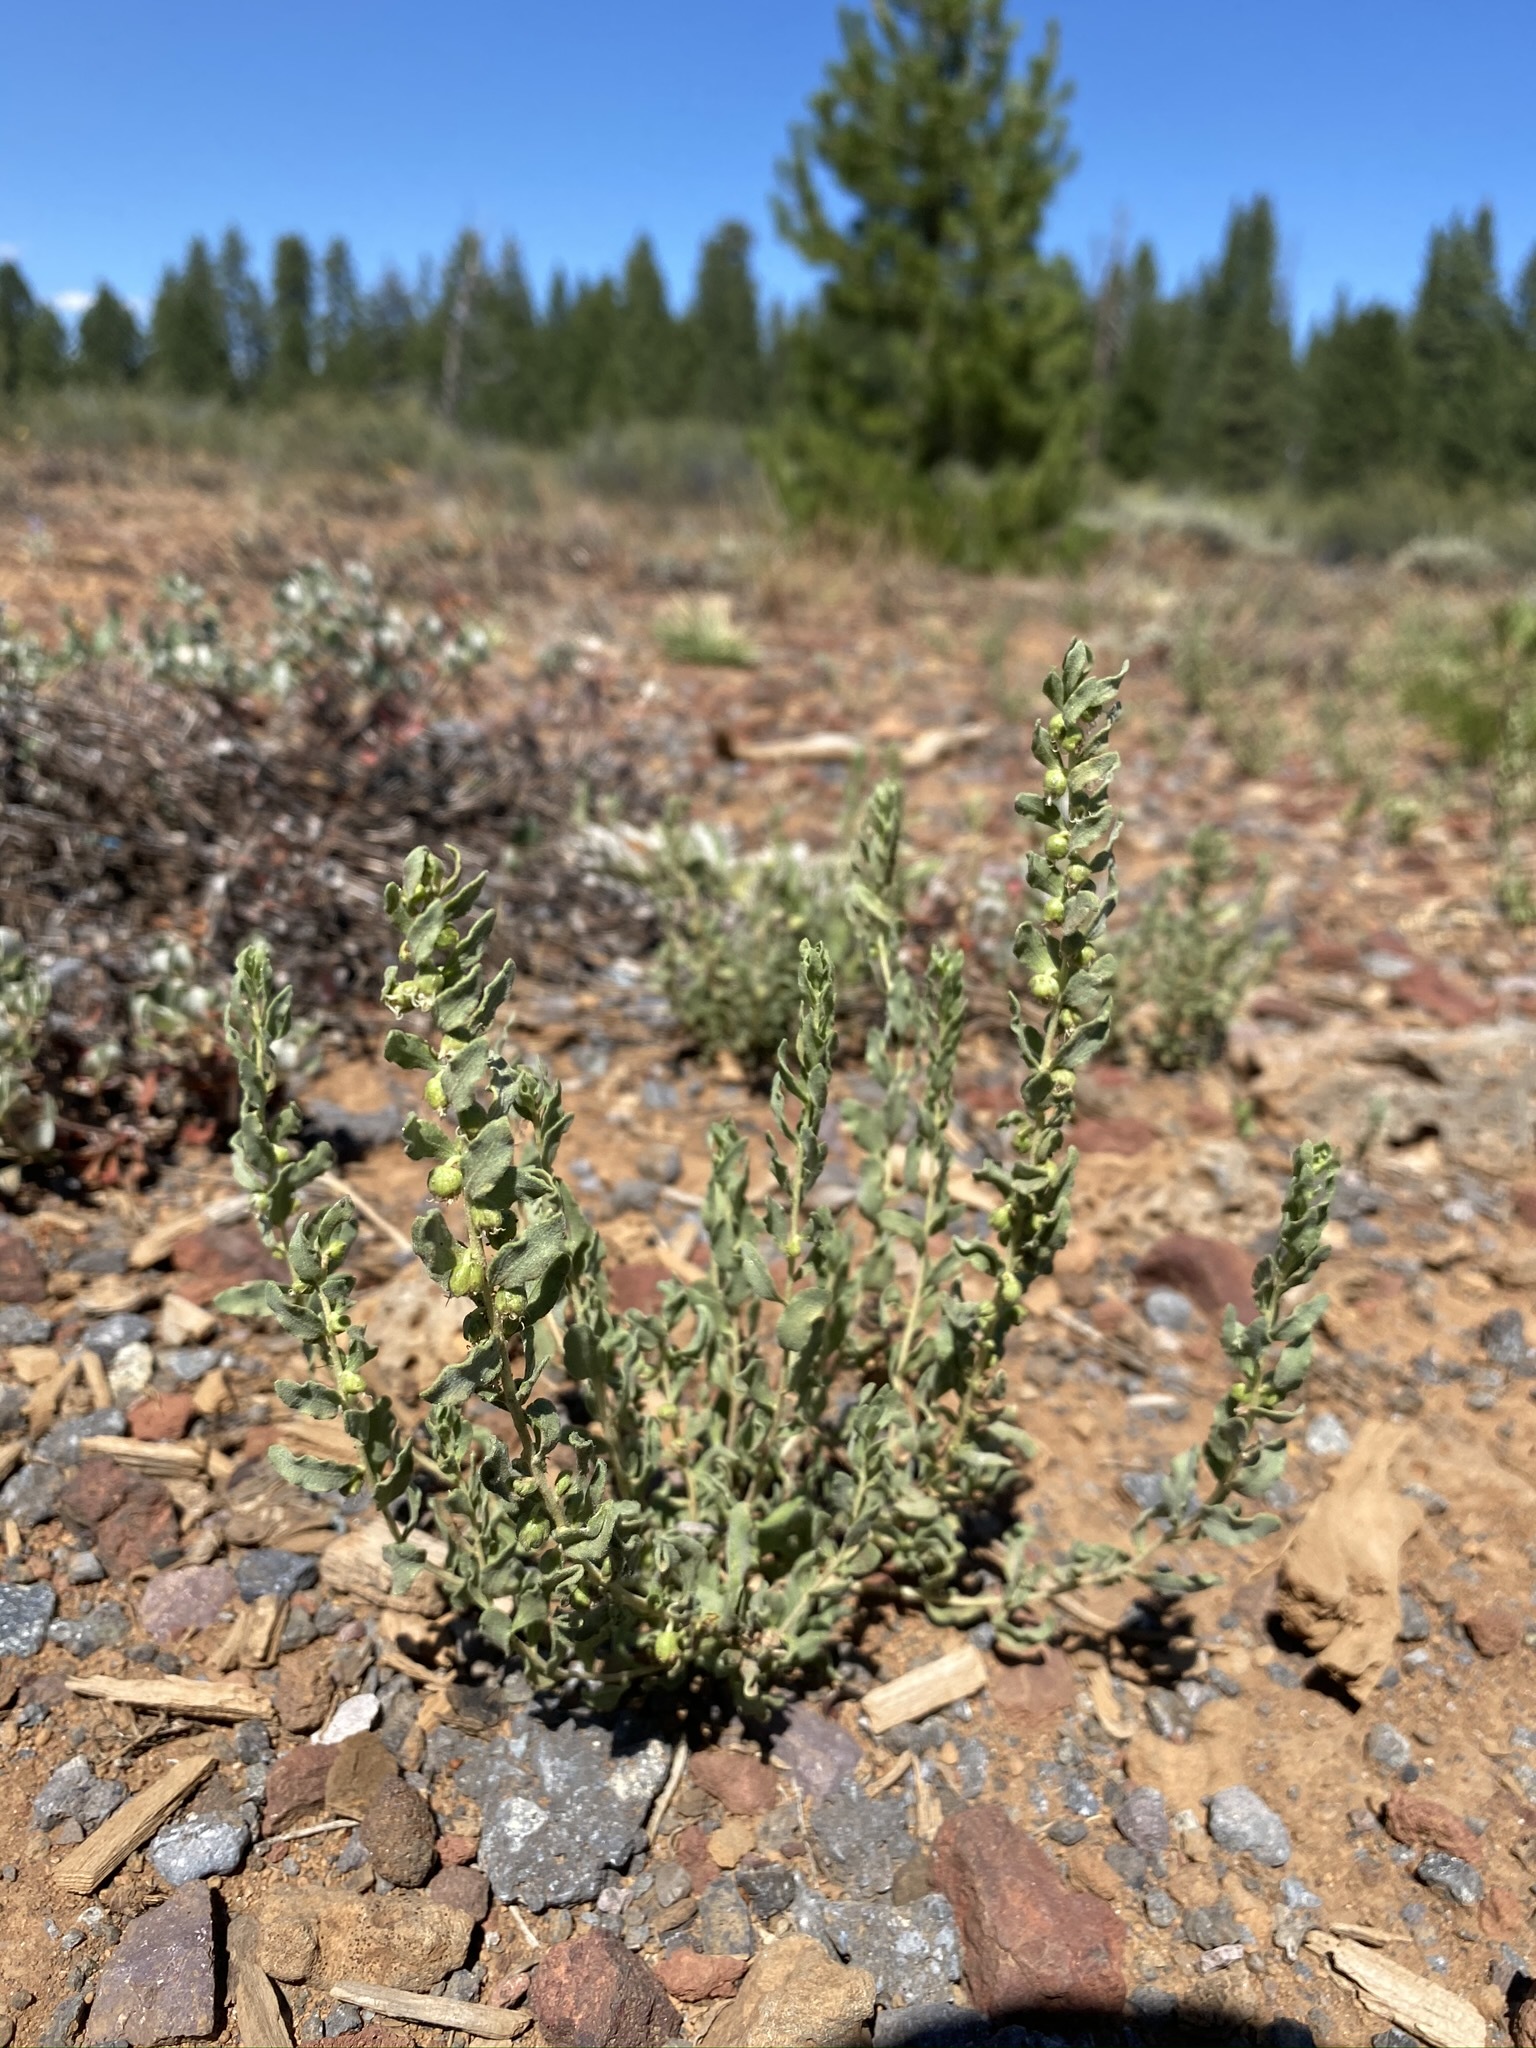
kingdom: Plantae
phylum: Tracheophyta
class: Magnoliopsida
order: Asterales
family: Asteraceae
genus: Iva
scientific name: Iva axillaris
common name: Poverty sumpweed
